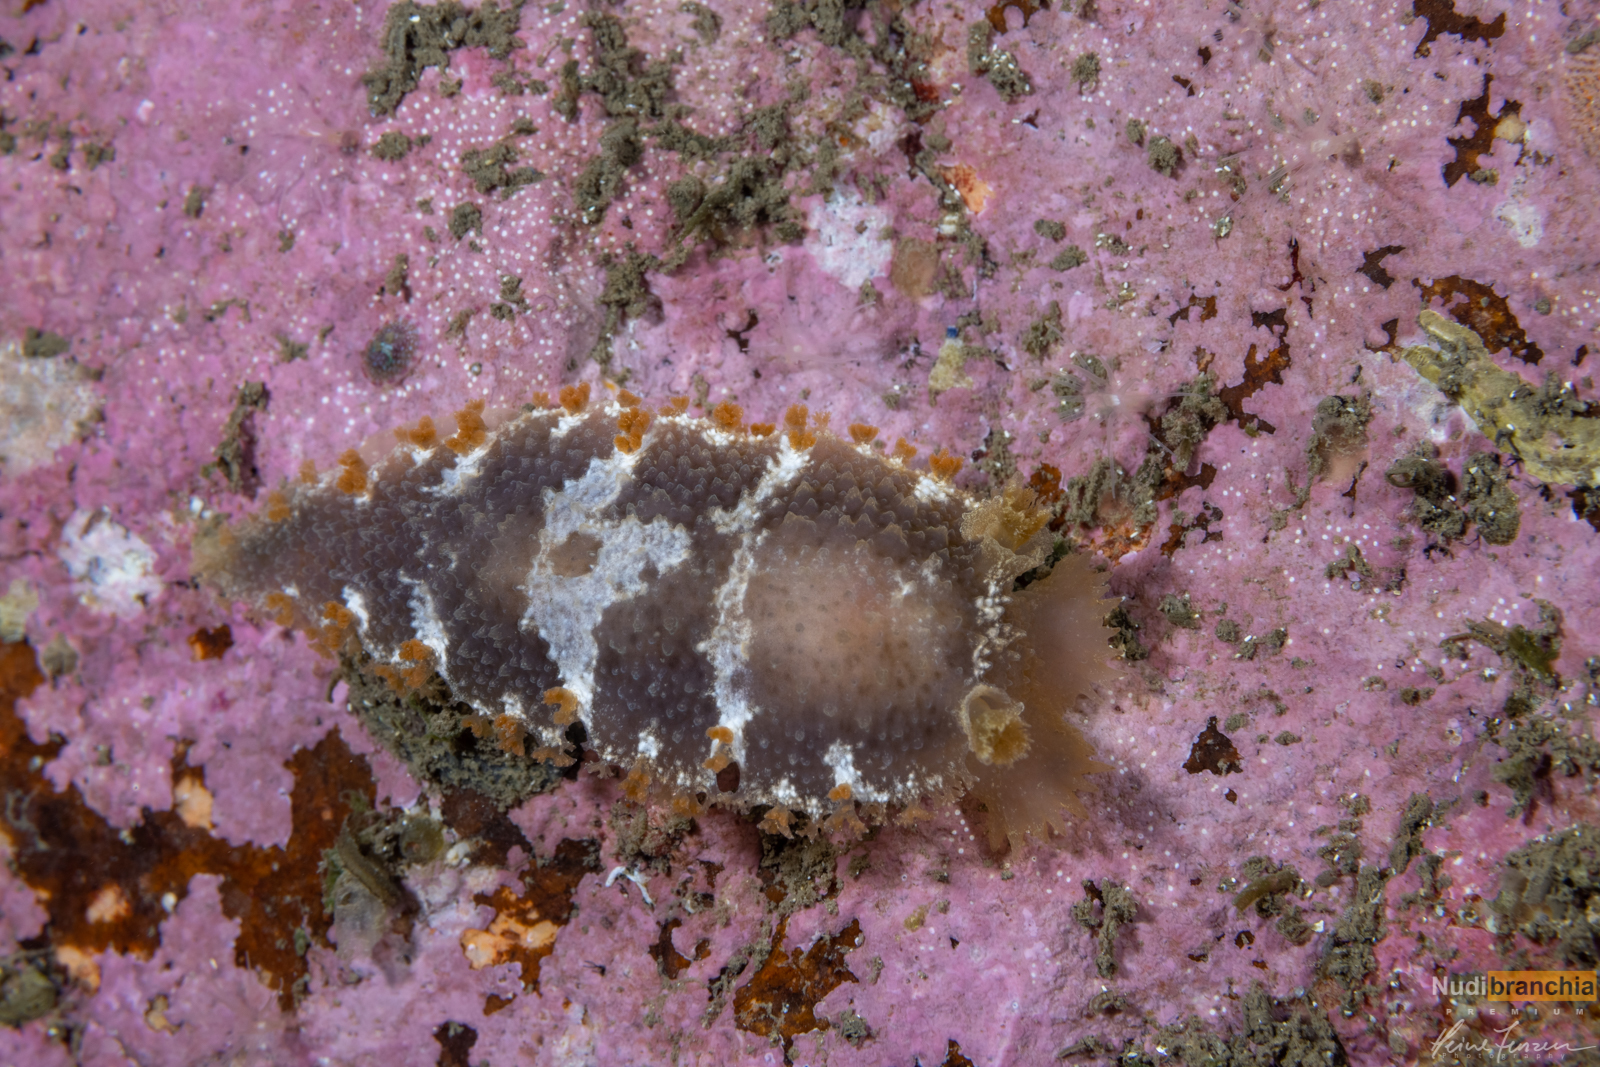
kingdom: Animalia
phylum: Mollusca
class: Gastropoda
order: Nudibranchia
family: Tritoniidae
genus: Tritonia
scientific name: Tritonia hombergii
